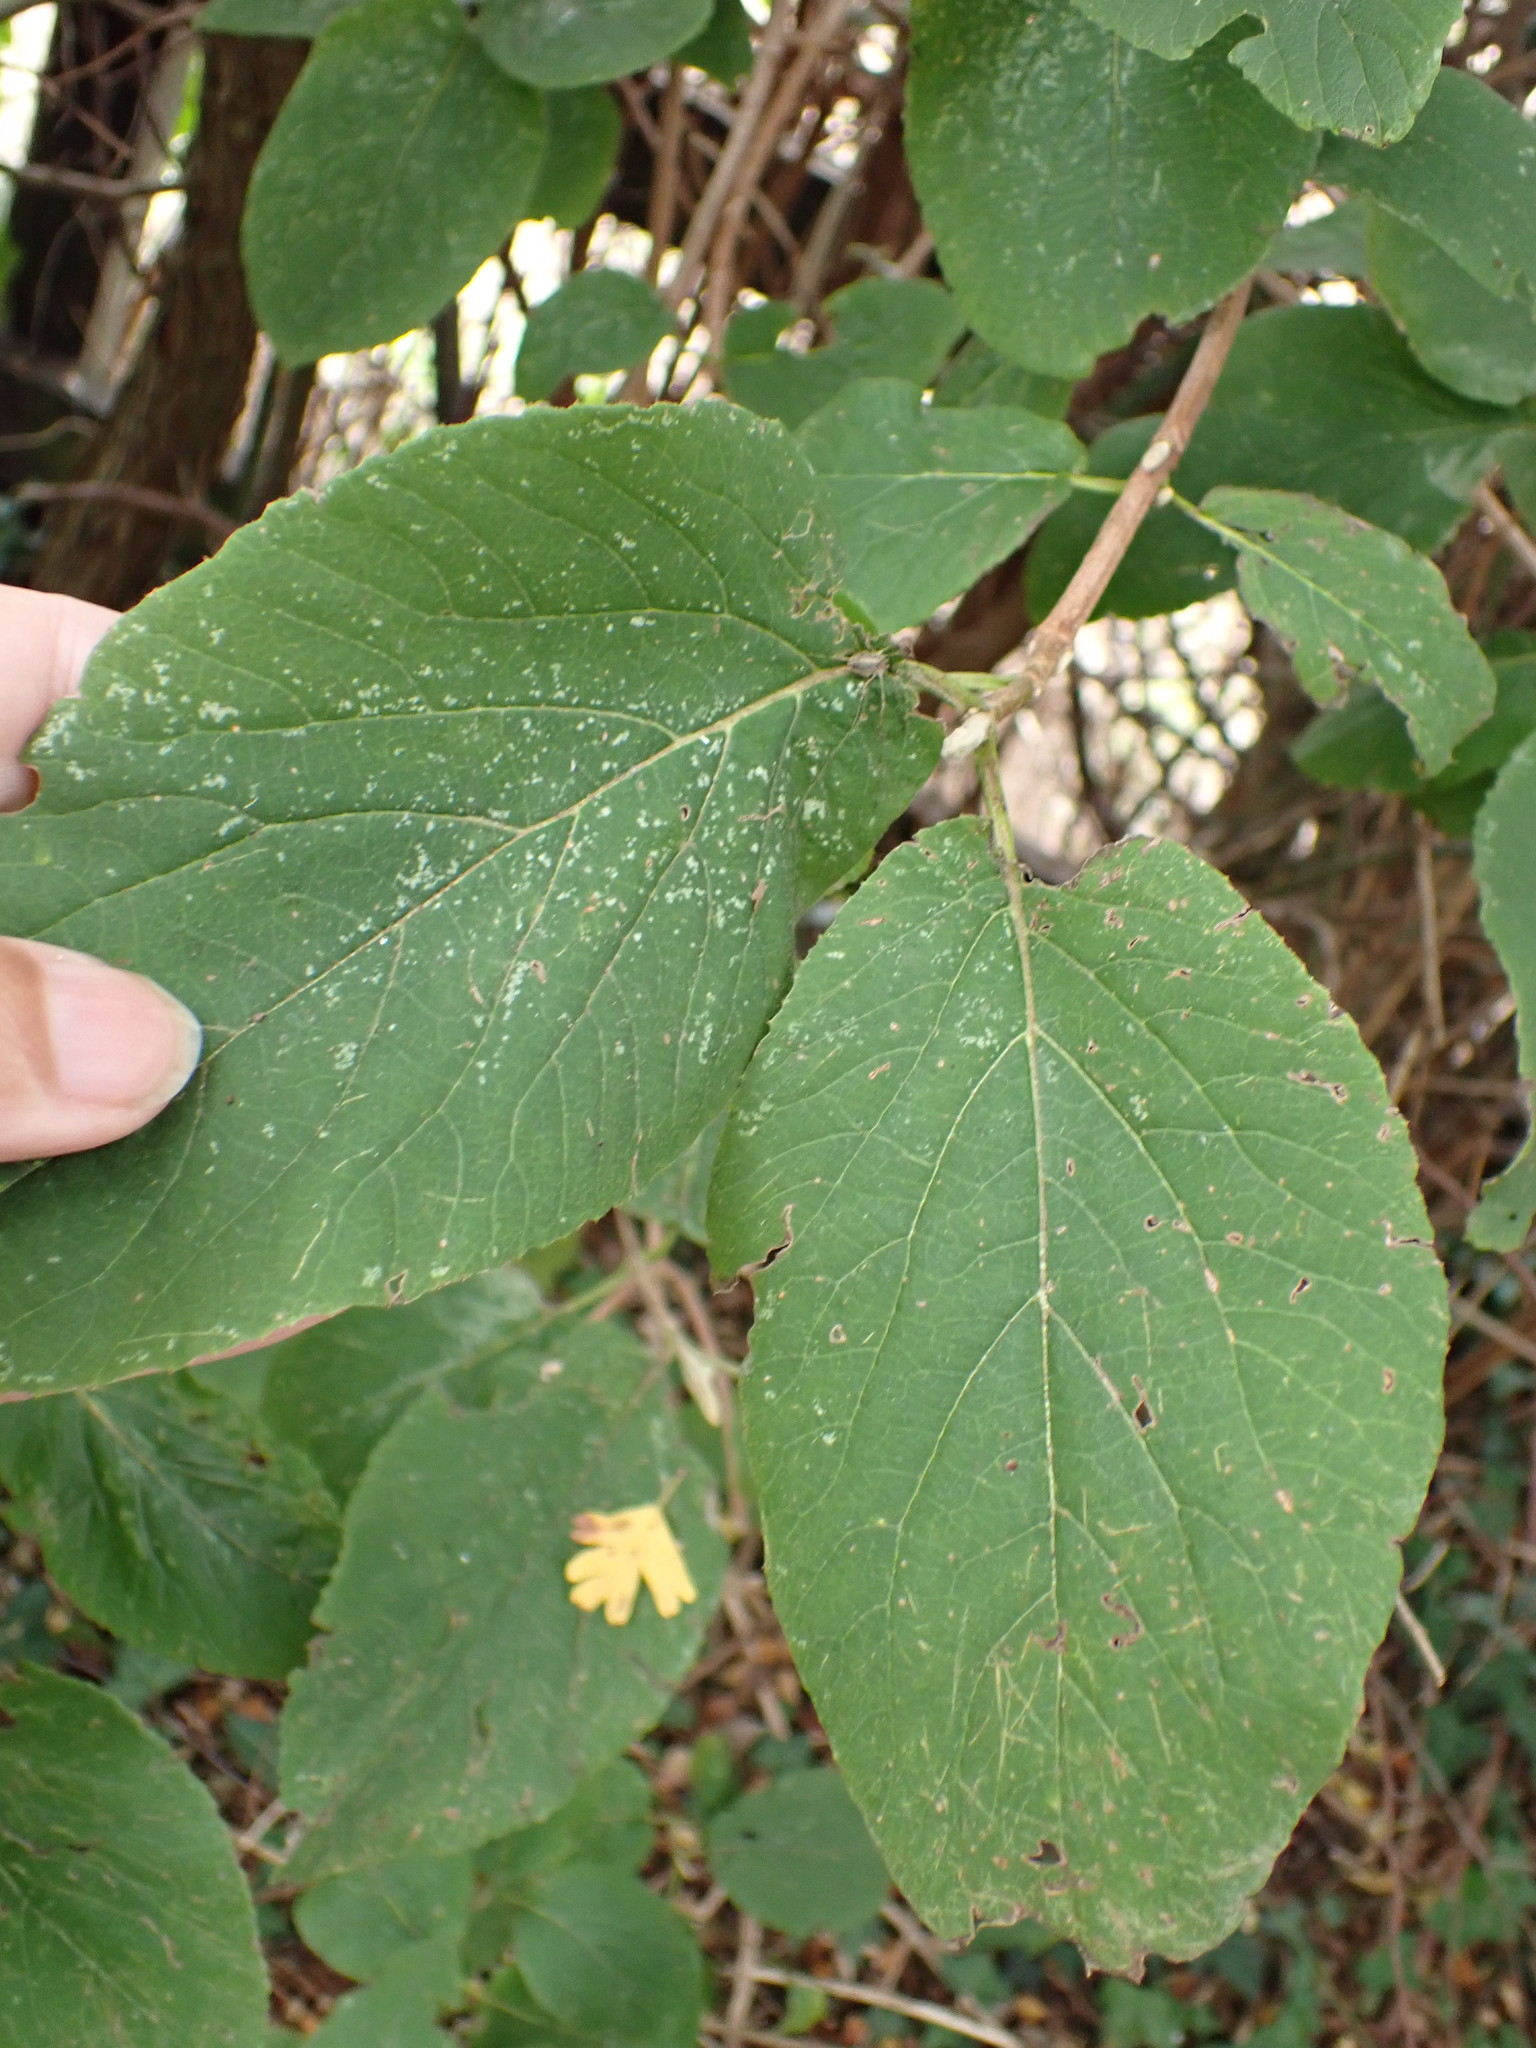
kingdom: Plantae
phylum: Tracheophyta
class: Magnoliopsida
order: Dipsacales
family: Viburnaceae
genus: Viburnum
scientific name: Viburnum lantana
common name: Wayfaring tree
